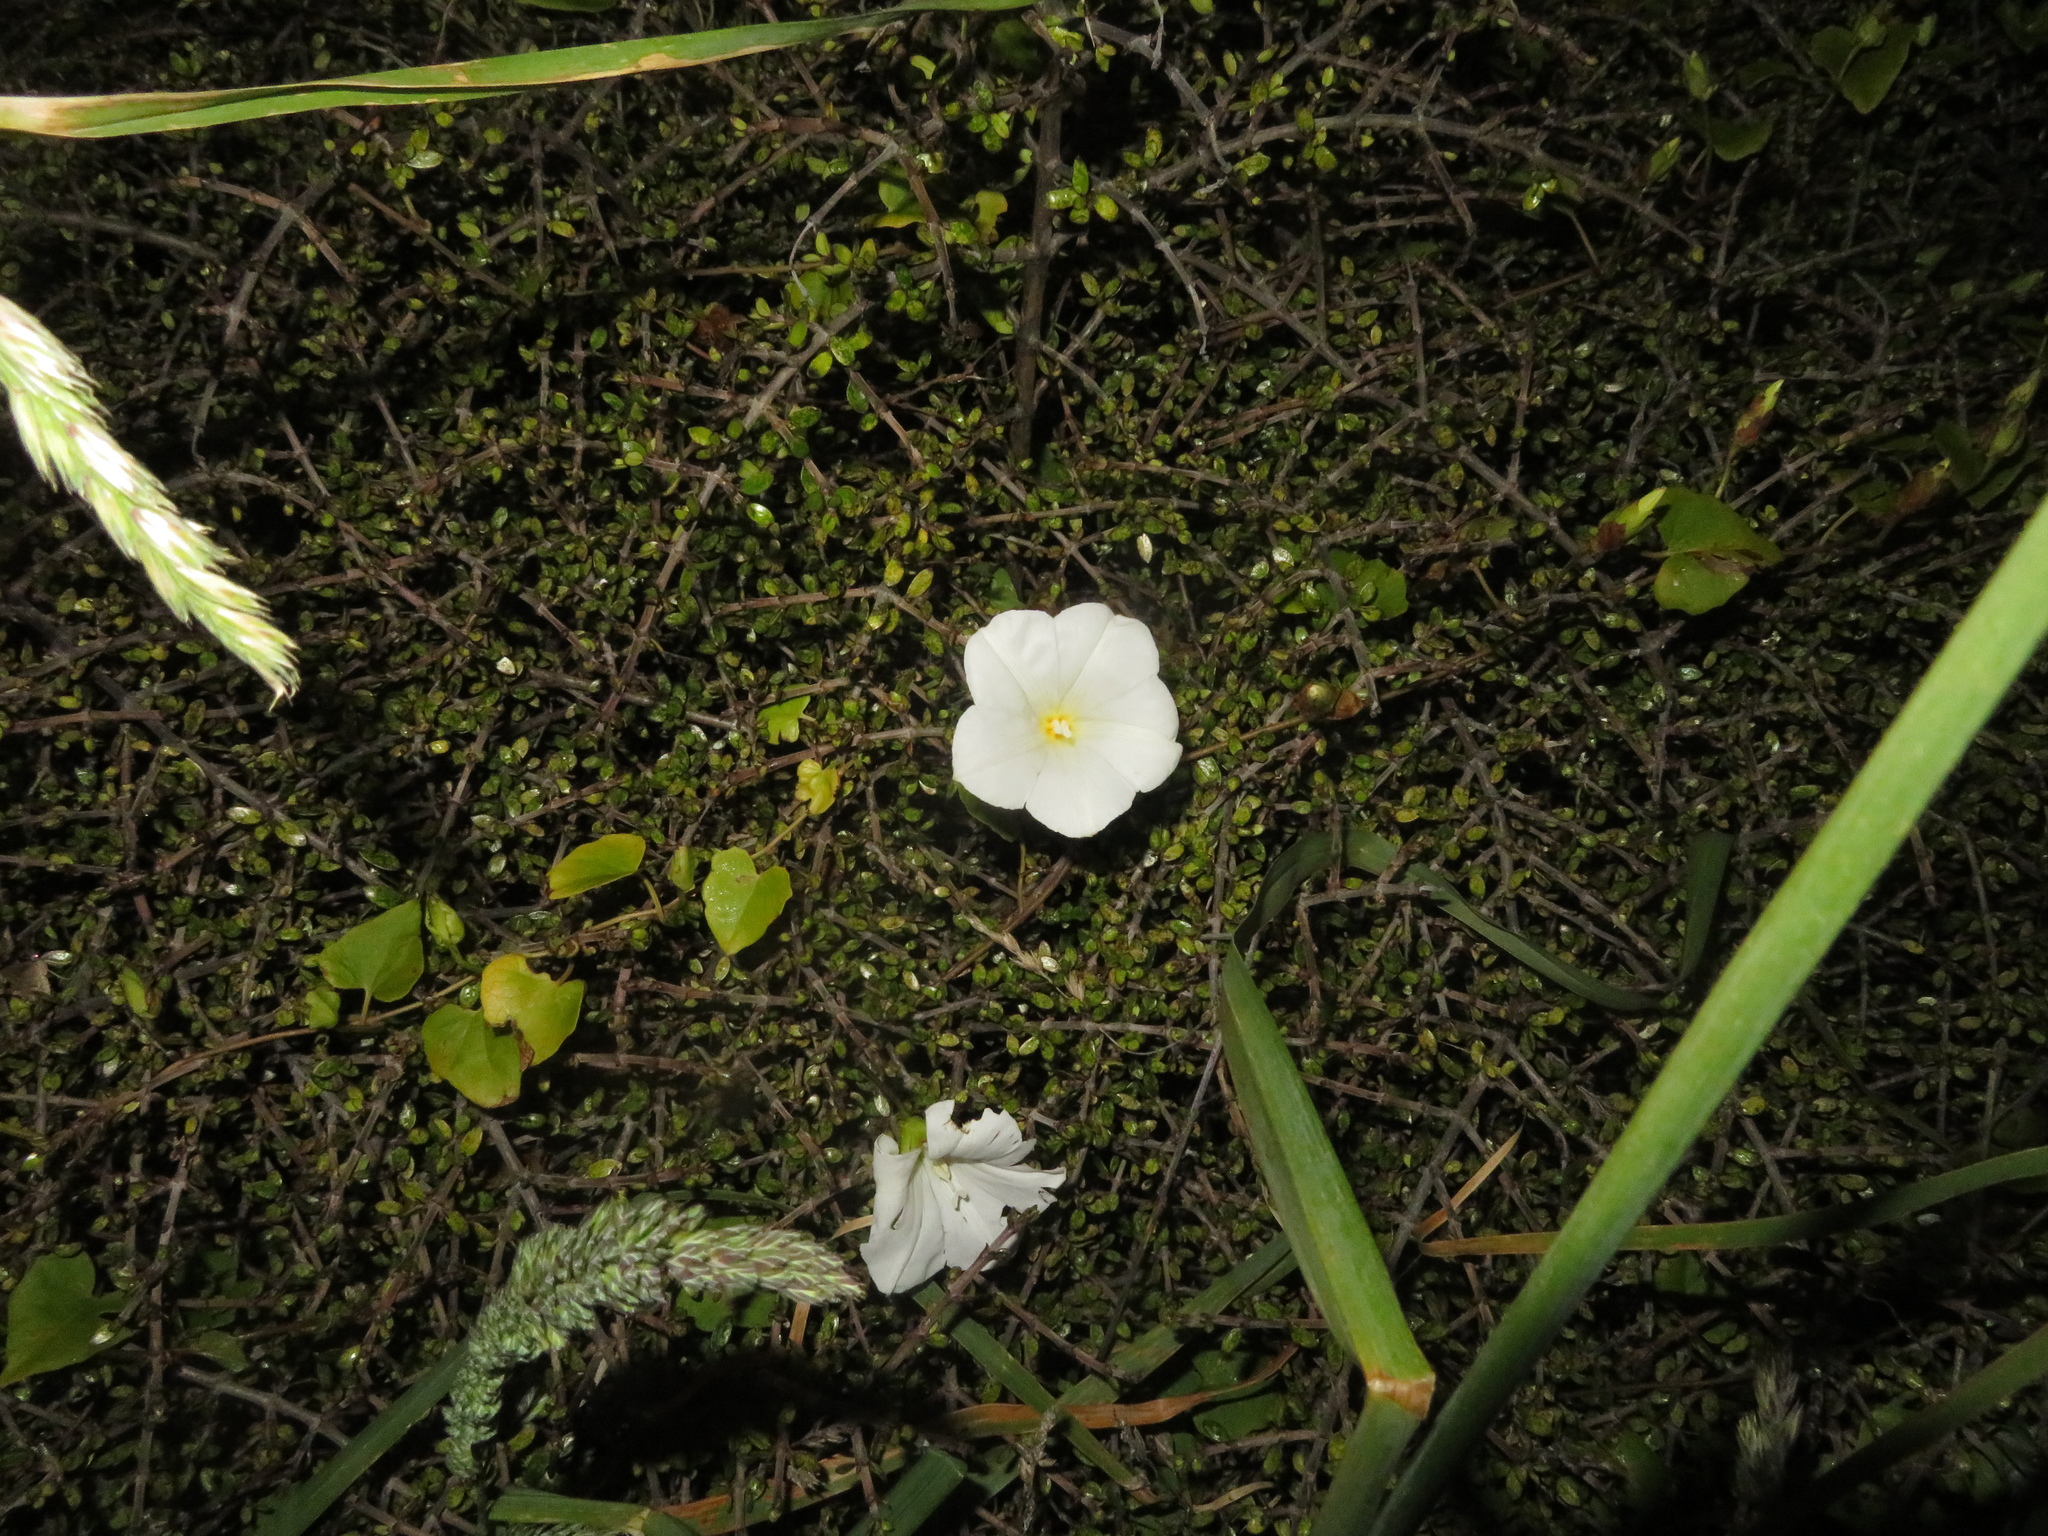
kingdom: Plantae
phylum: Tracheophyta
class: Magnoliopsida
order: Solanales
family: Convolvulaceae
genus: Calystegia
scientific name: Calystegia tuguriorum
